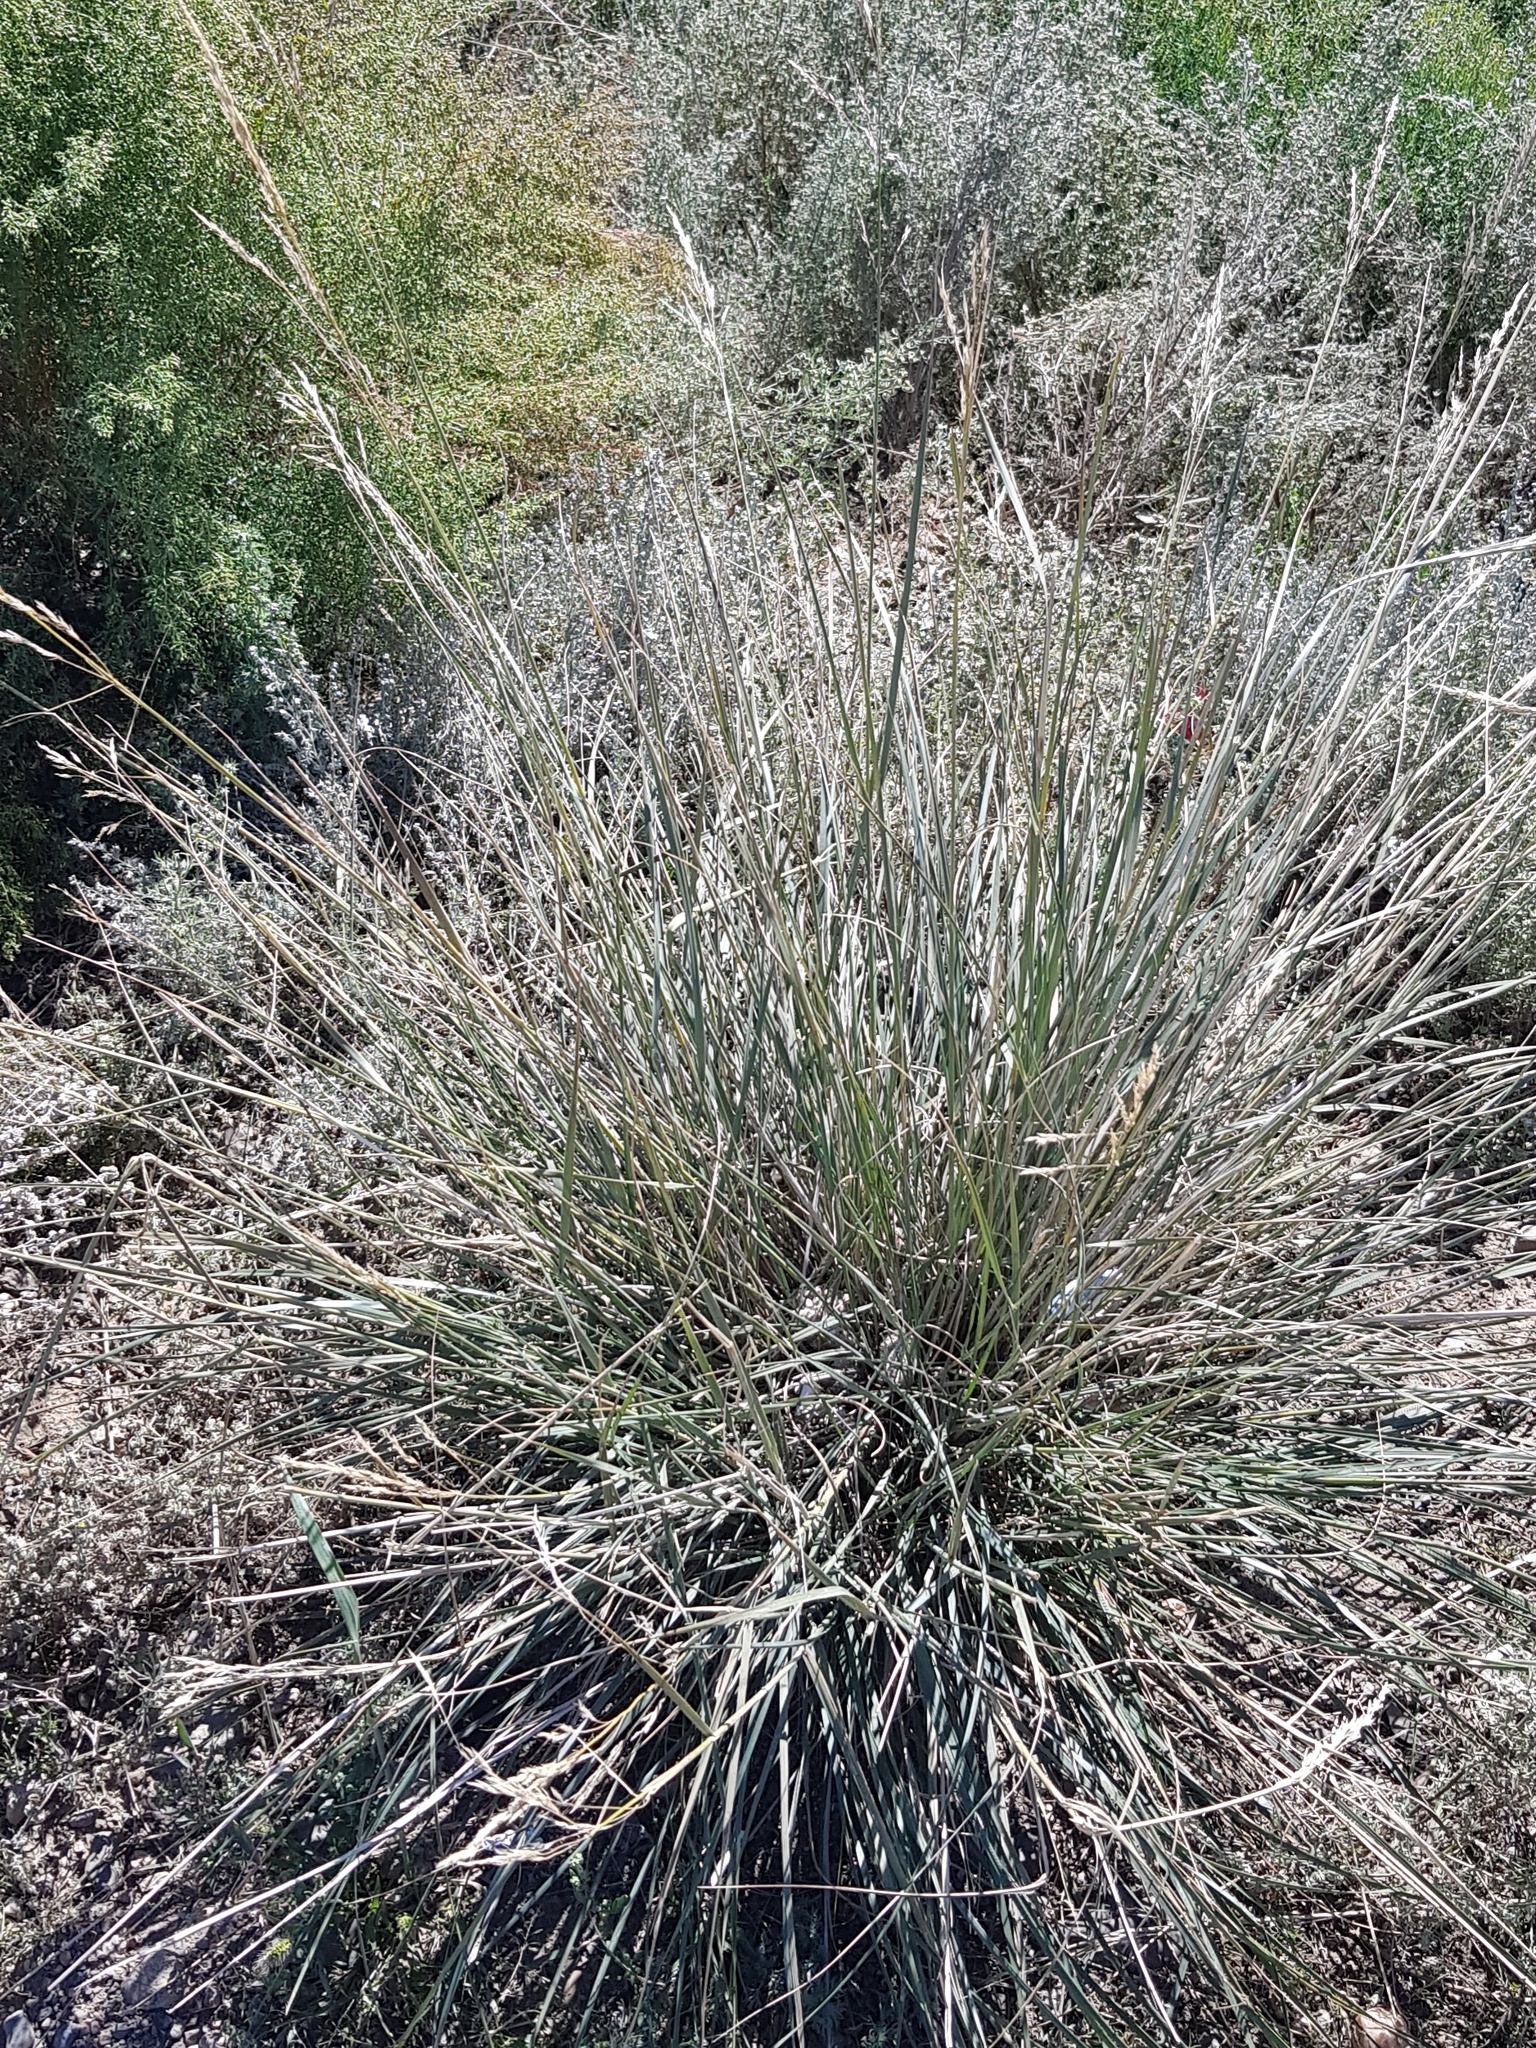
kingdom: Plantae
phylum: Tracheophyta
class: Liliopsida
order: Poales
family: Poaceae
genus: Neotrinia
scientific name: Neotrinia splendens
